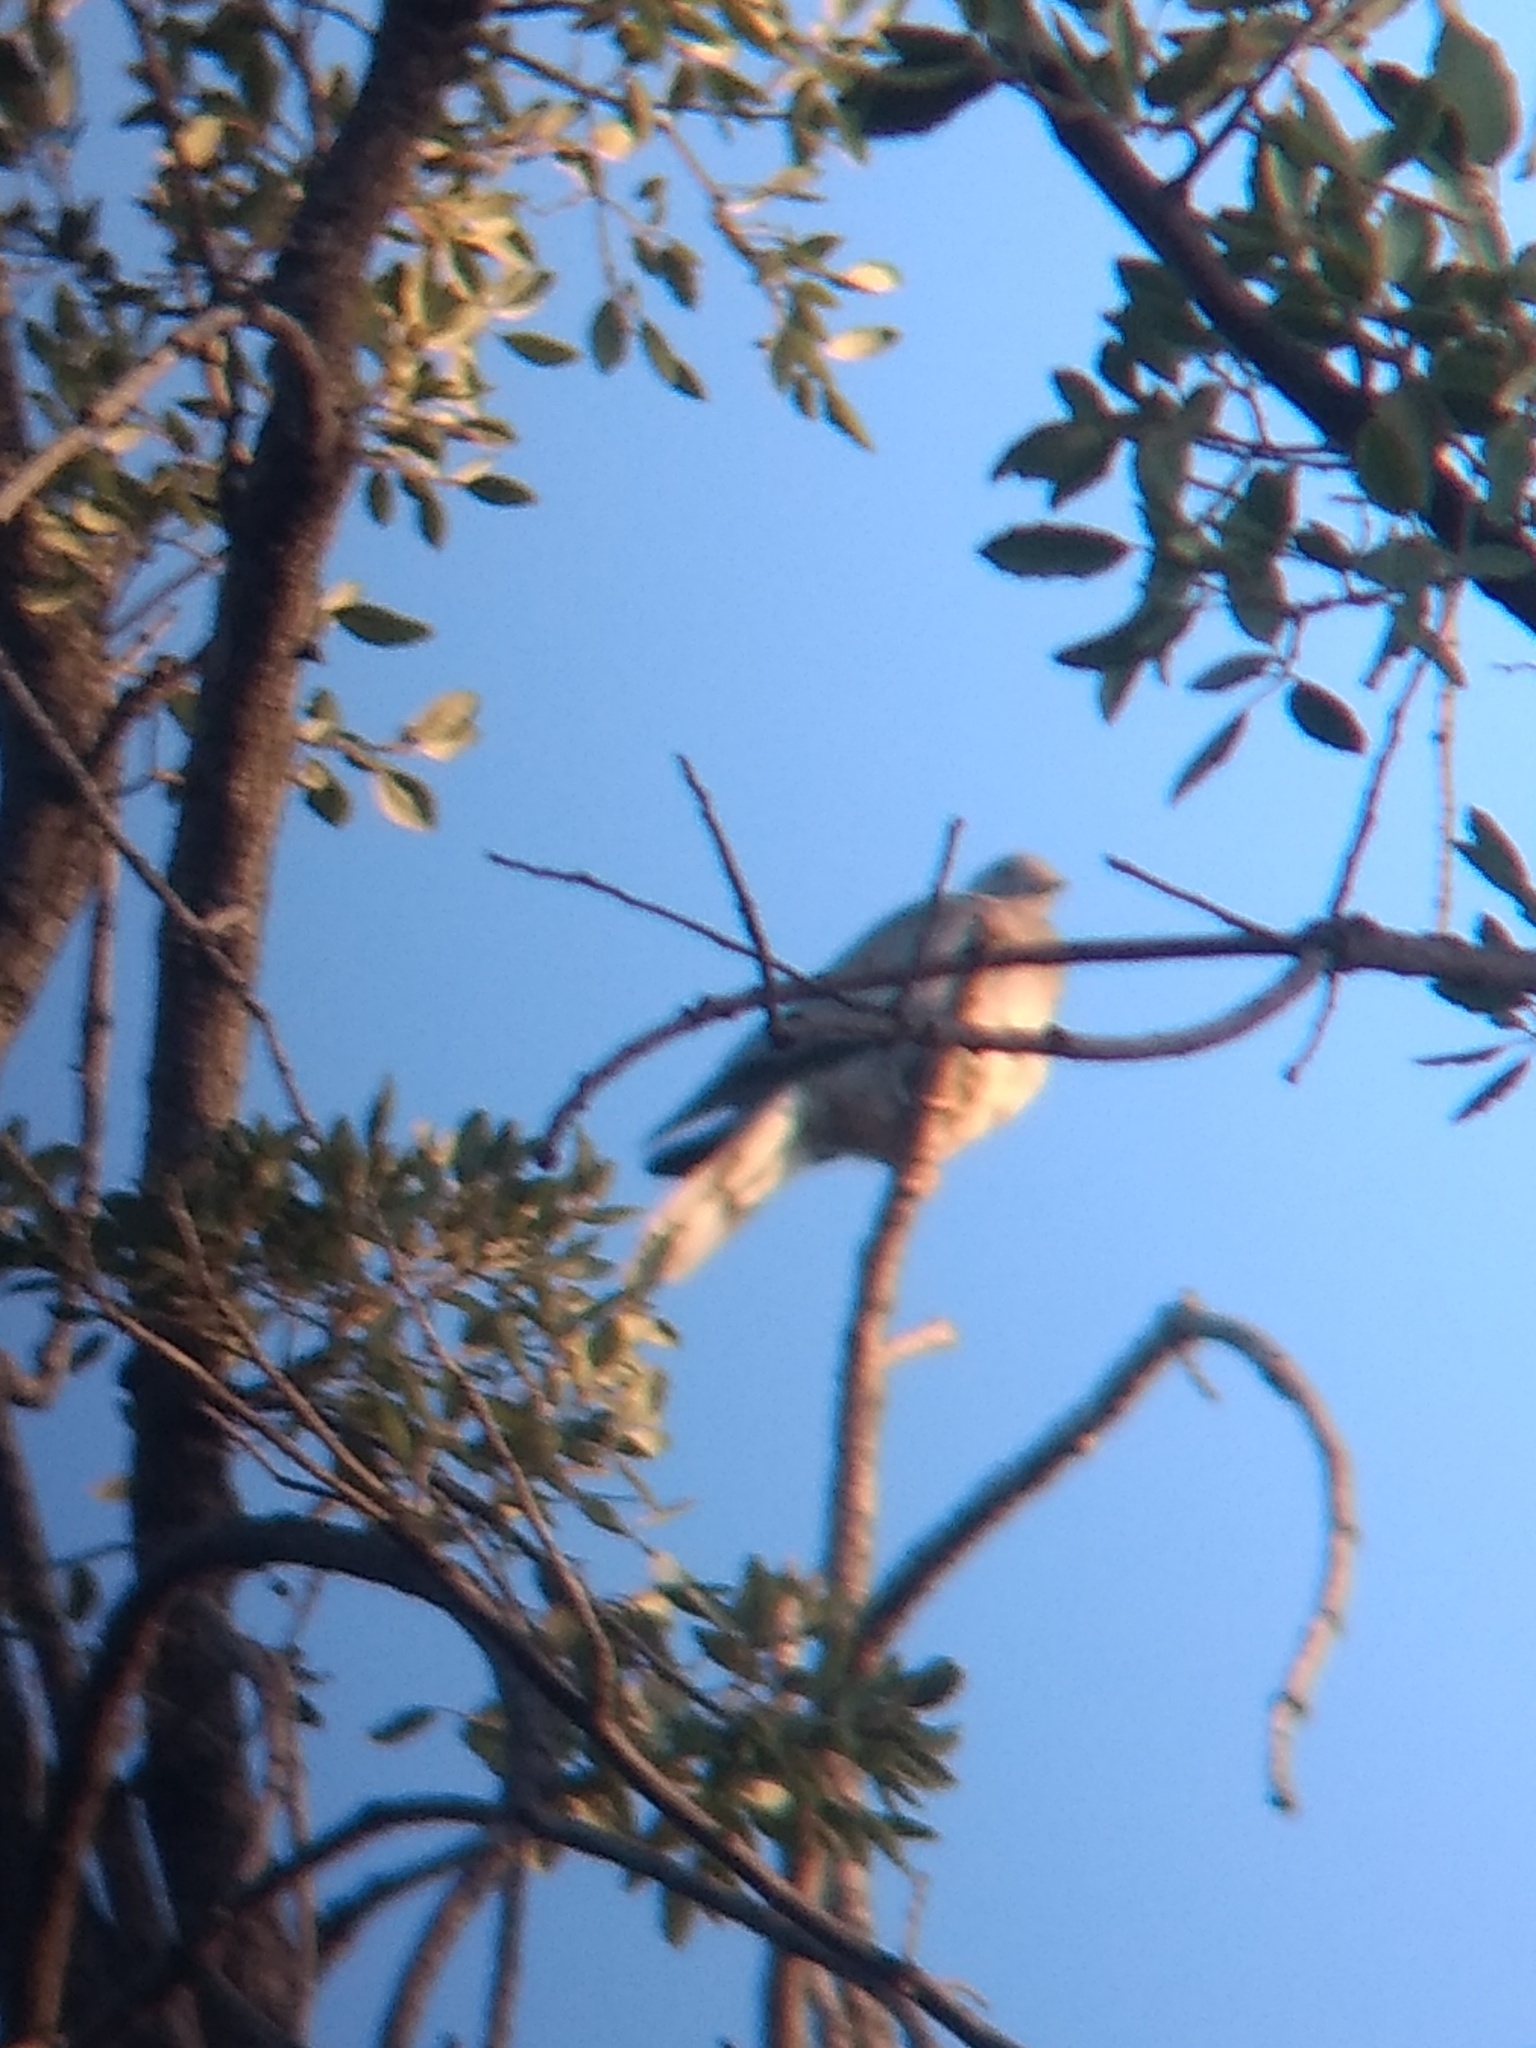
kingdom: Animalia
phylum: Chordata
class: Aves
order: Columbiformes
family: Columbidae
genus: Patagioenas
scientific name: Patagioenas fasciata
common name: Band-tailed pigeon
